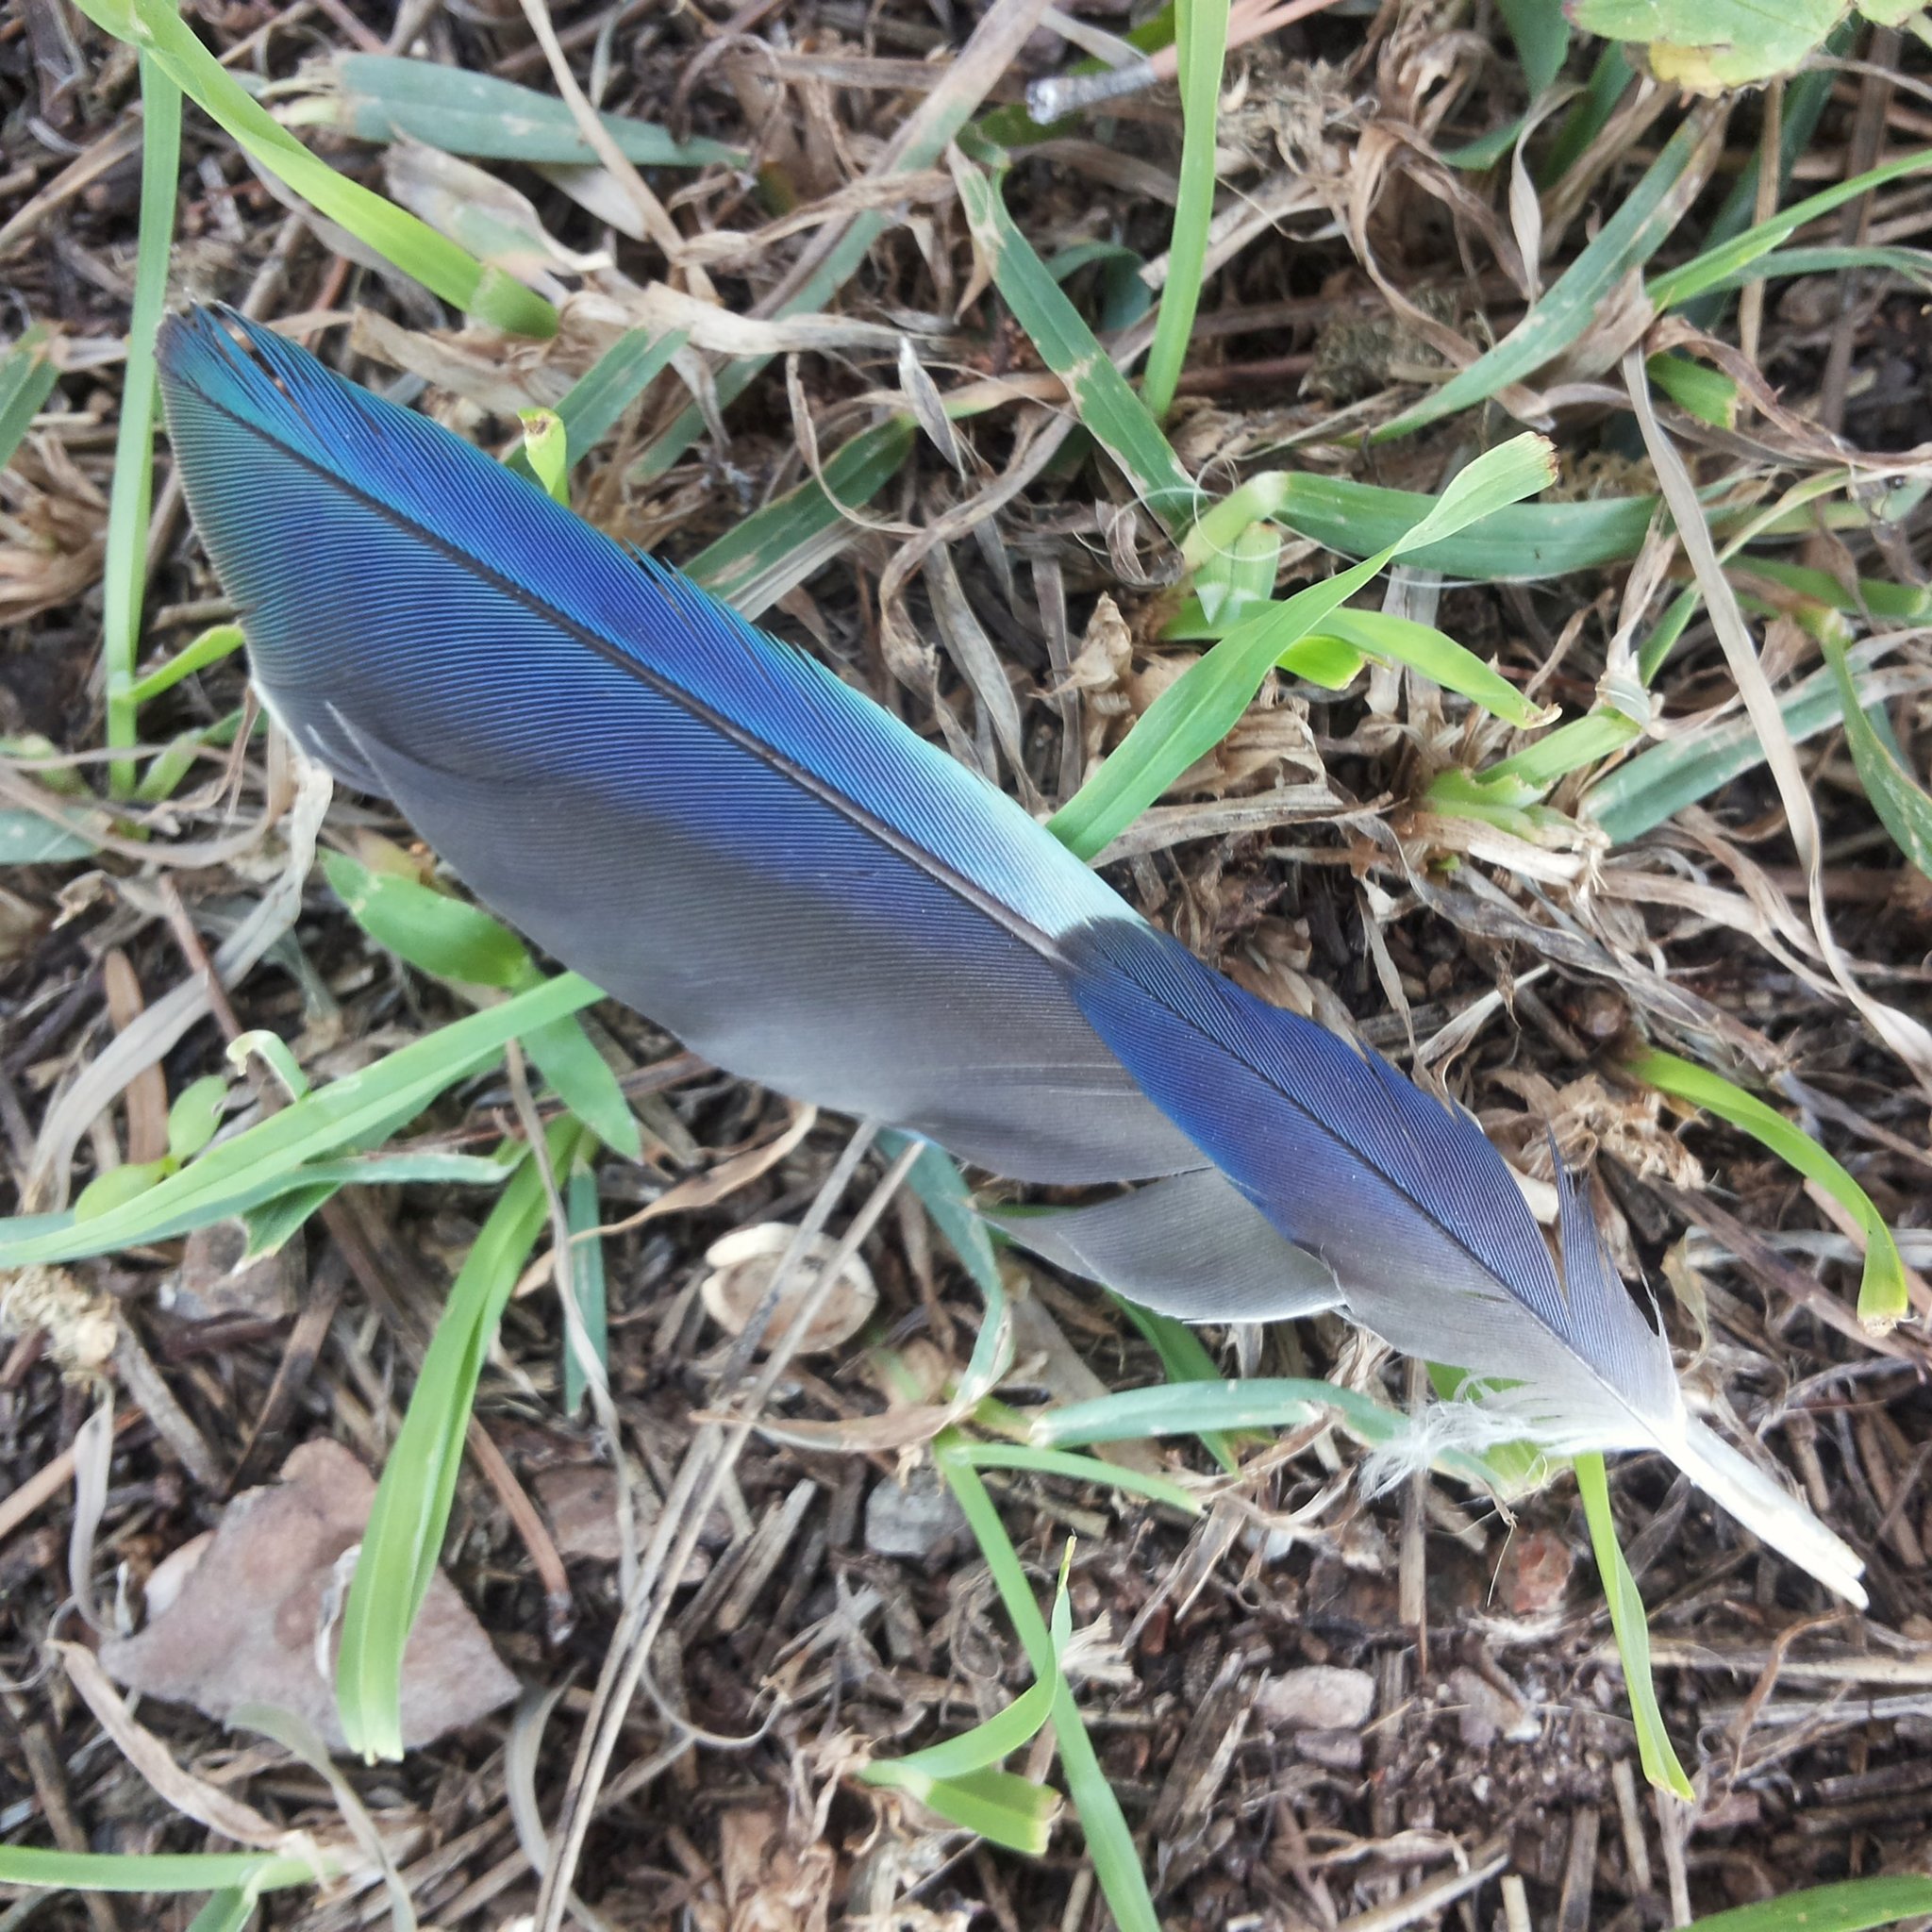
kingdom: Animalia
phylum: Chordata
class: Aves
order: Psittaciformes
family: Psittacidae
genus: Myiopsitta
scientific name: Myiopsitta monachus
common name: Monk parakeet
